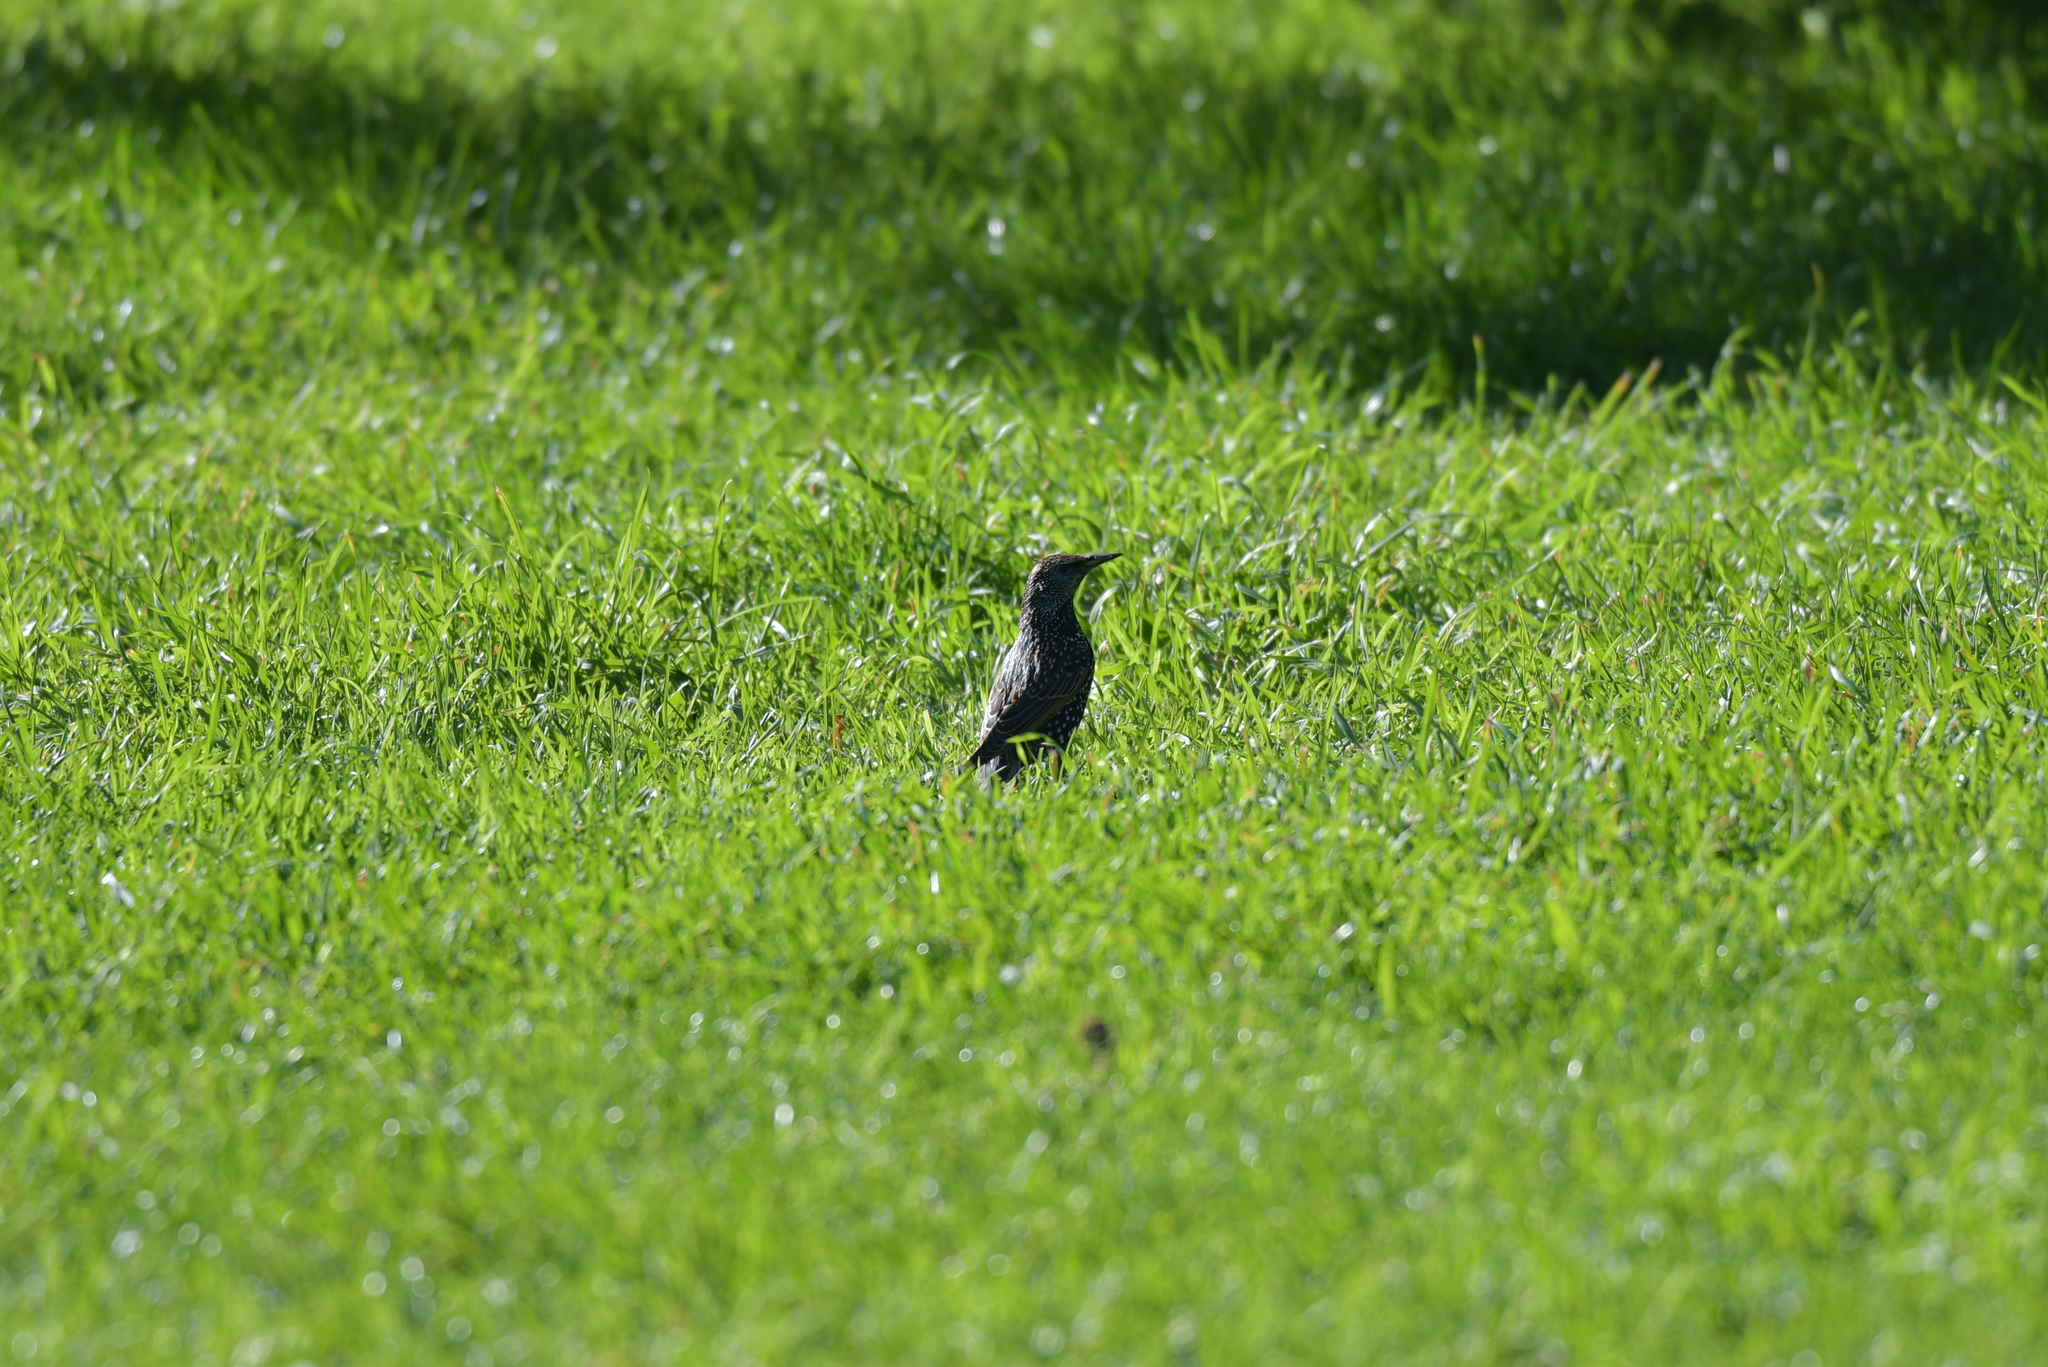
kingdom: Animalia
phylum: Chordata
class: Aves
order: Passeriformes
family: Sturnidae
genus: Sturnus
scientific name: Sturnus vulgaris
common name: Common starling
